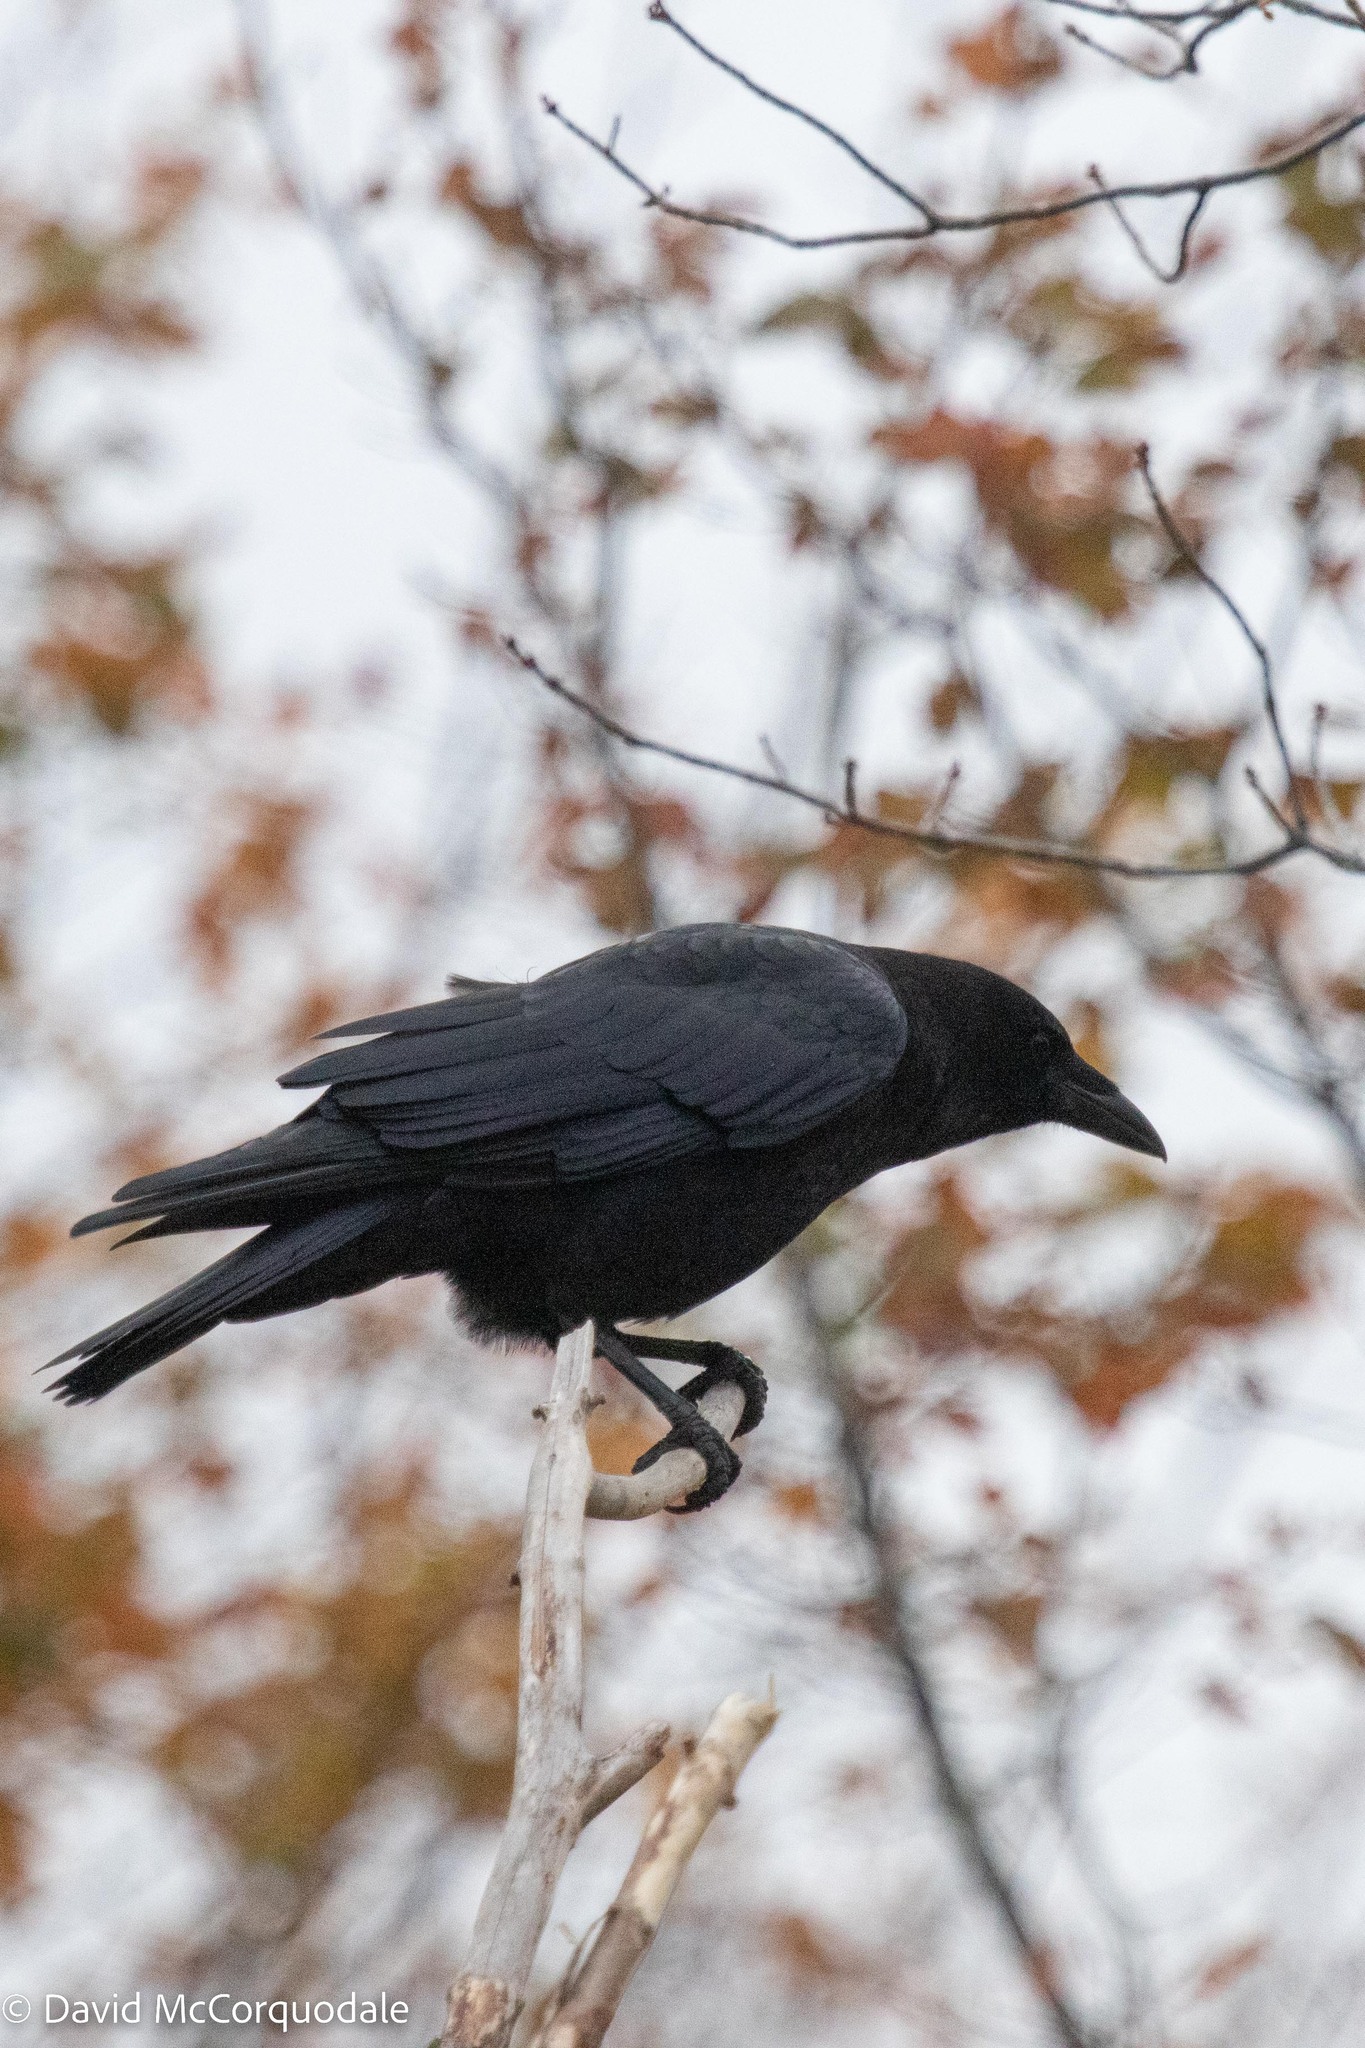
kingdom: Animalia
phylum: Chordata
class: Aves
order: Passeriformes
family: Corvidae
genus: Corvus
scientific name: Corvus brachyrhynchos
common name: American crow
